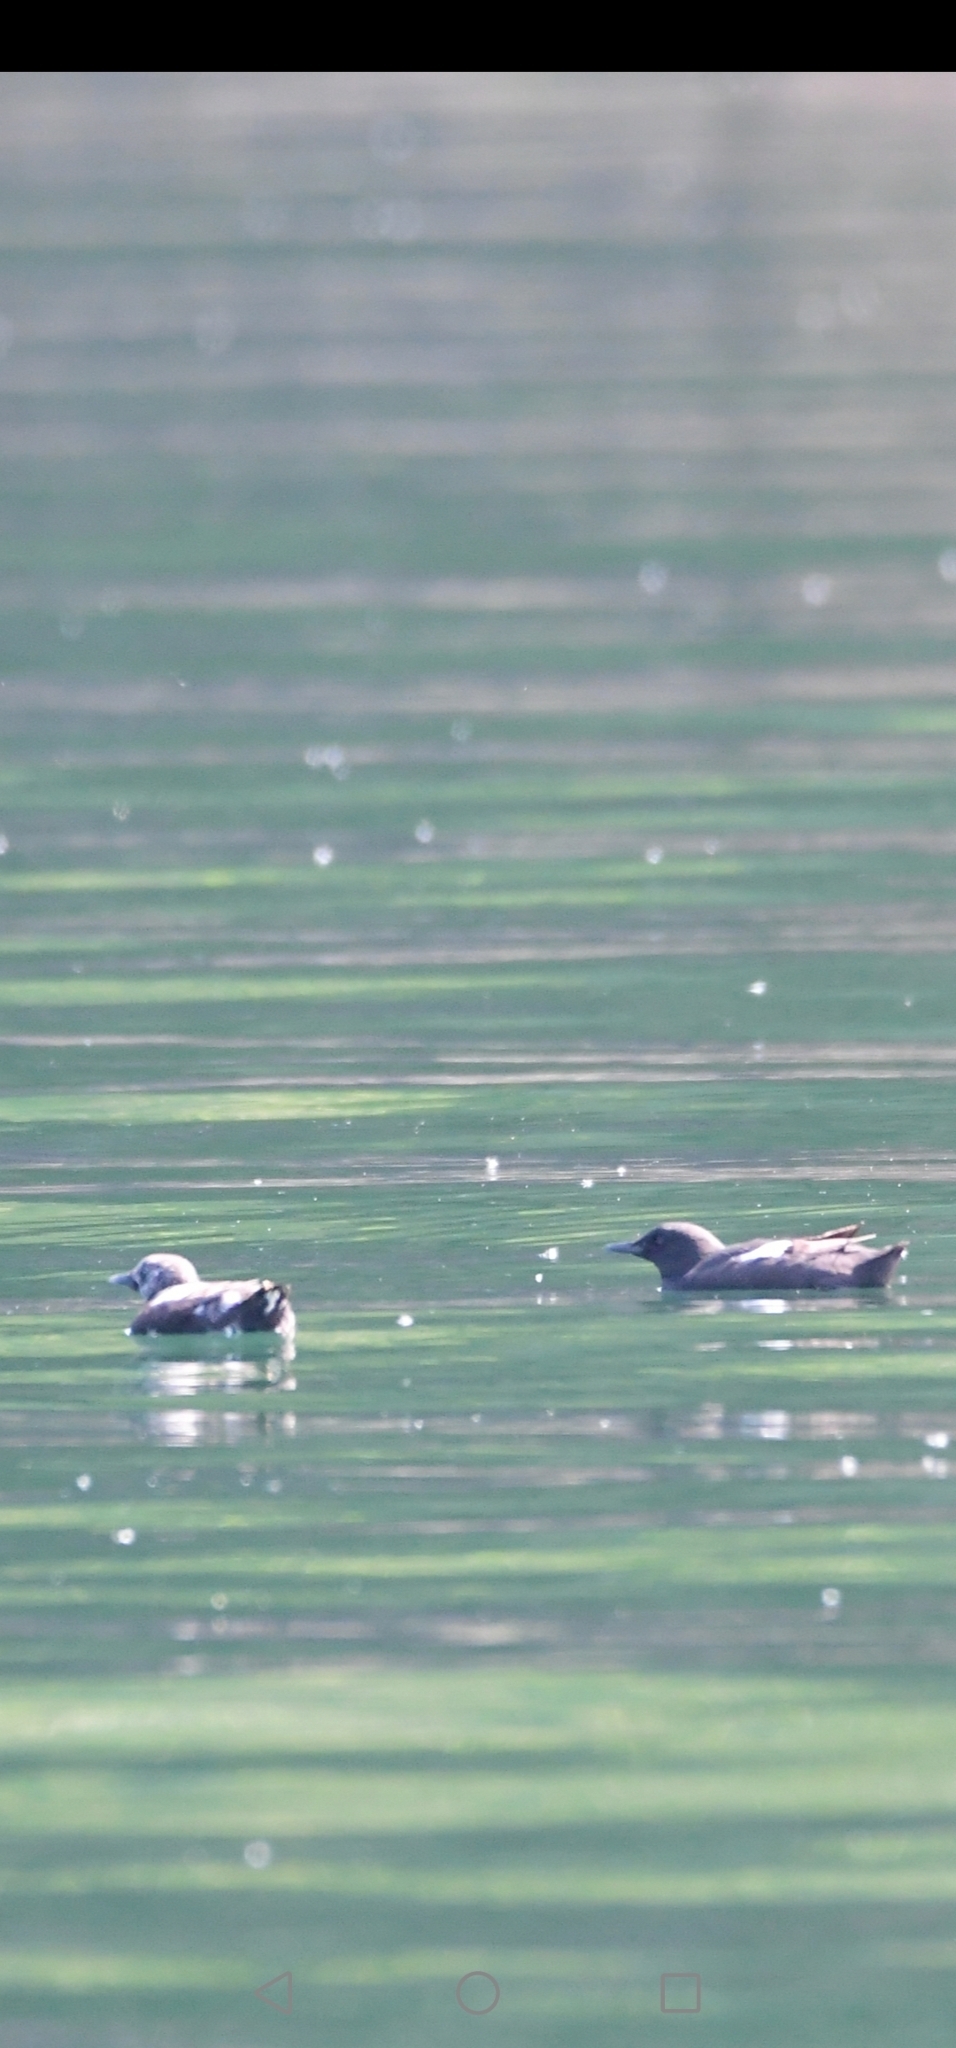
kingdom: Animalia
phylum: Chordata
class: Aves
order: Charadriiformes
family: Alcidae
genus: Cepphus
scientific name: Cepphus grylle
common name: Black guillemot
